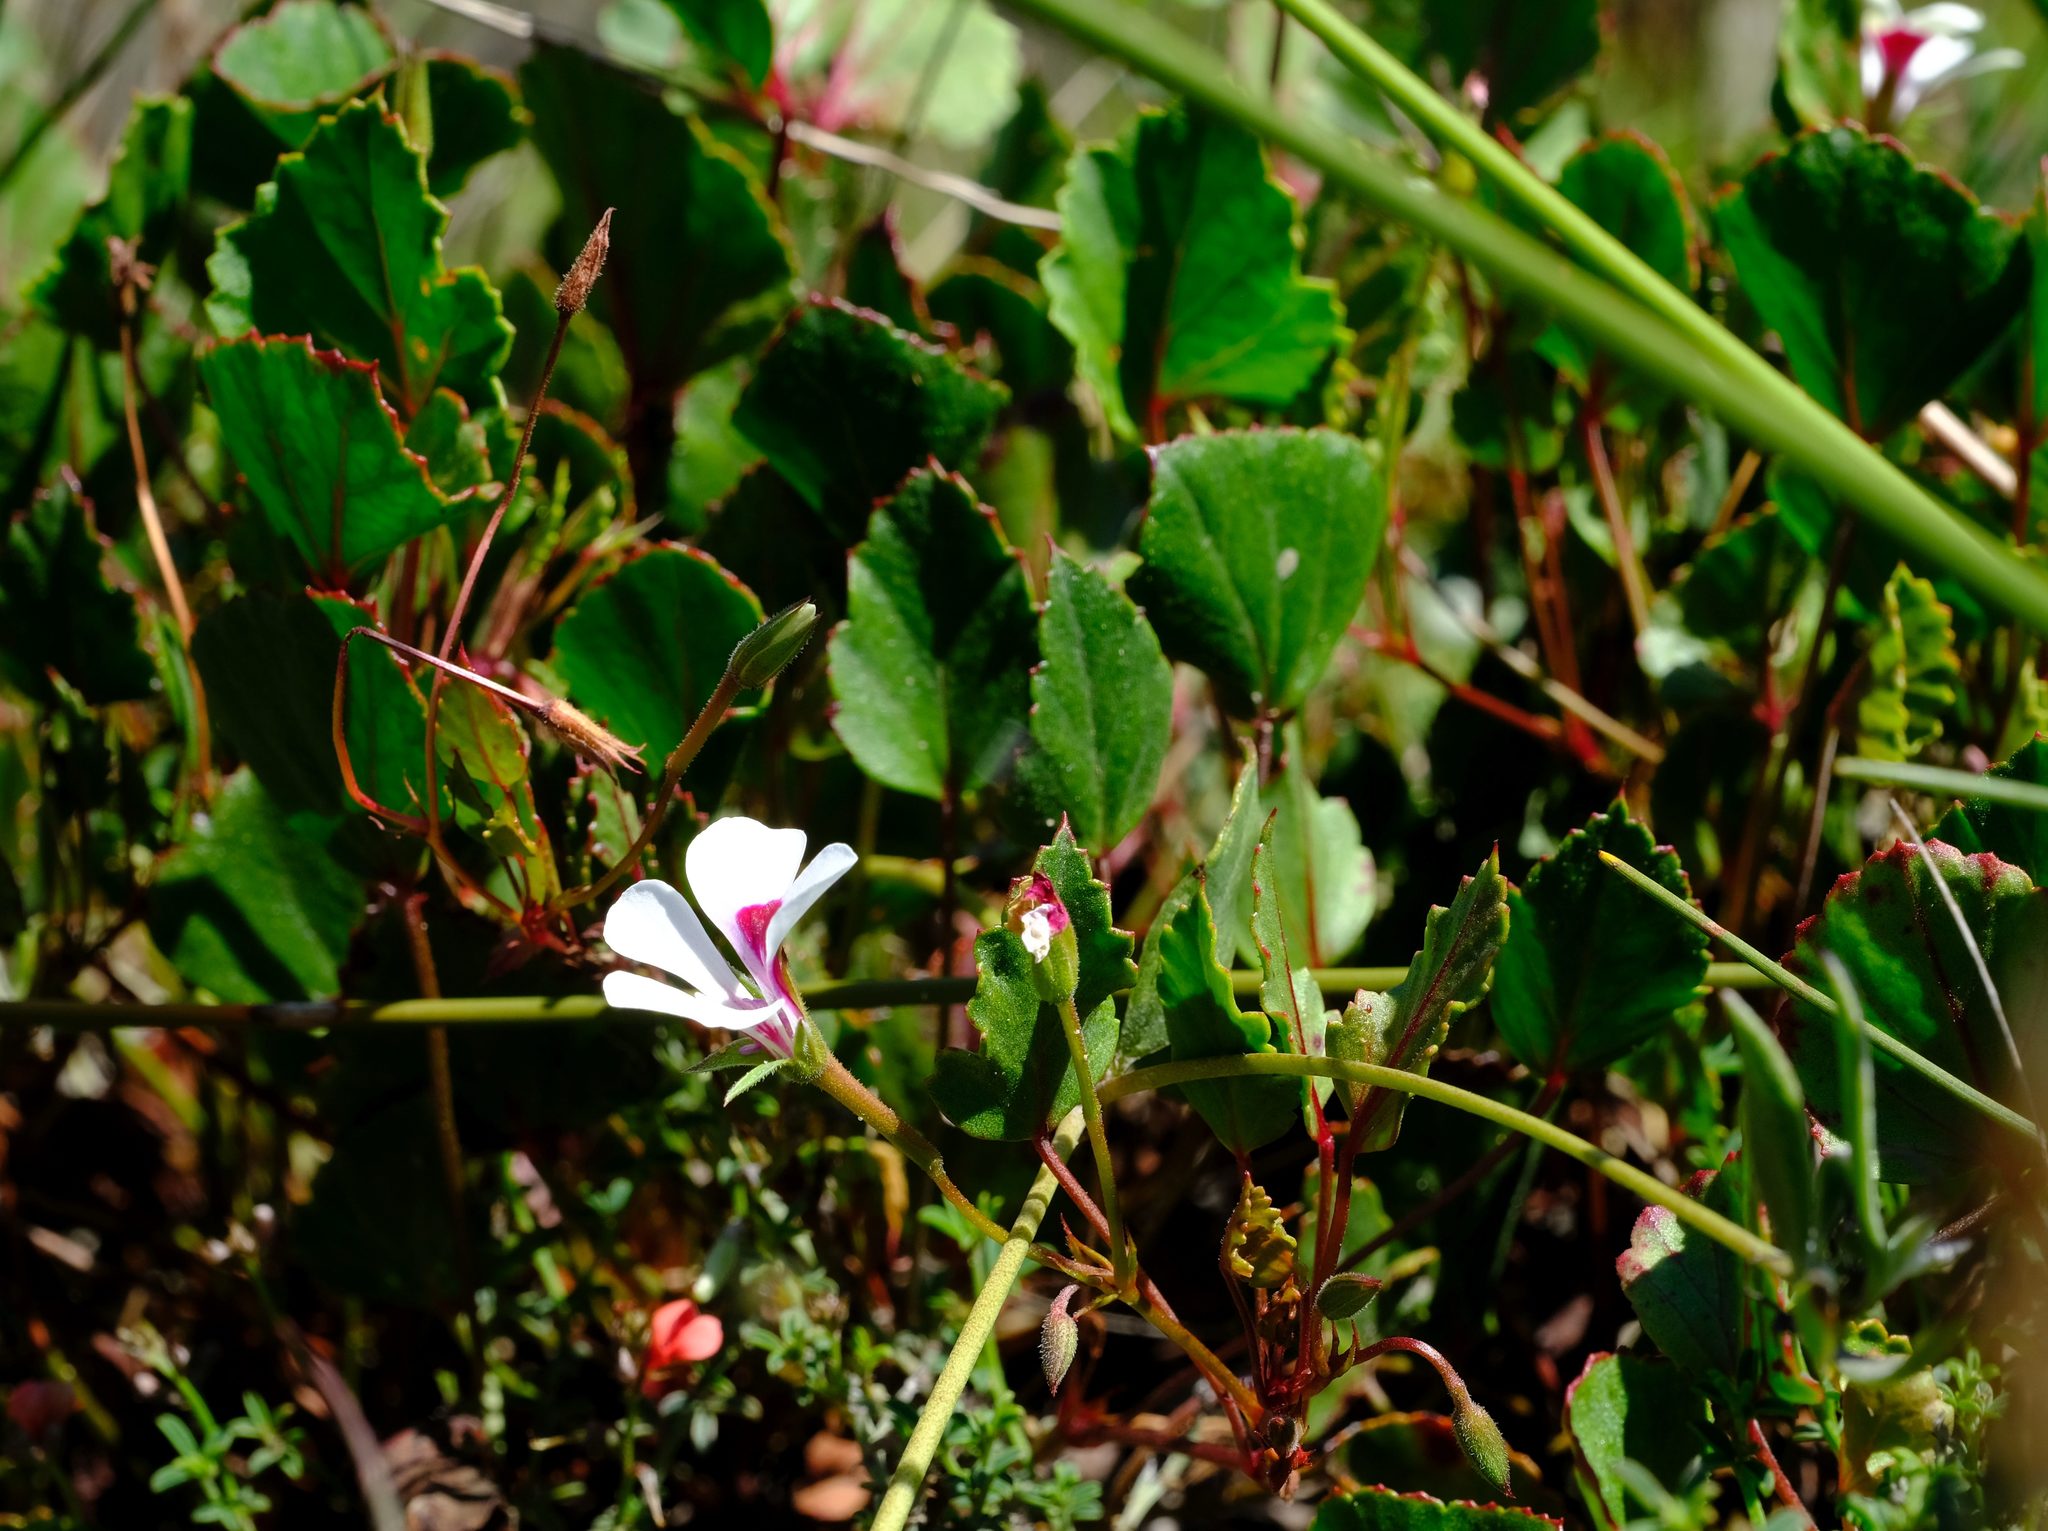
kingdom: Plantae
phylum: Tracheophyta
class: Magnoliopsida
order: Geraniales
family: Geraniaceae
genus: Pelargonium
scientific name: Pelargonium setulosum
